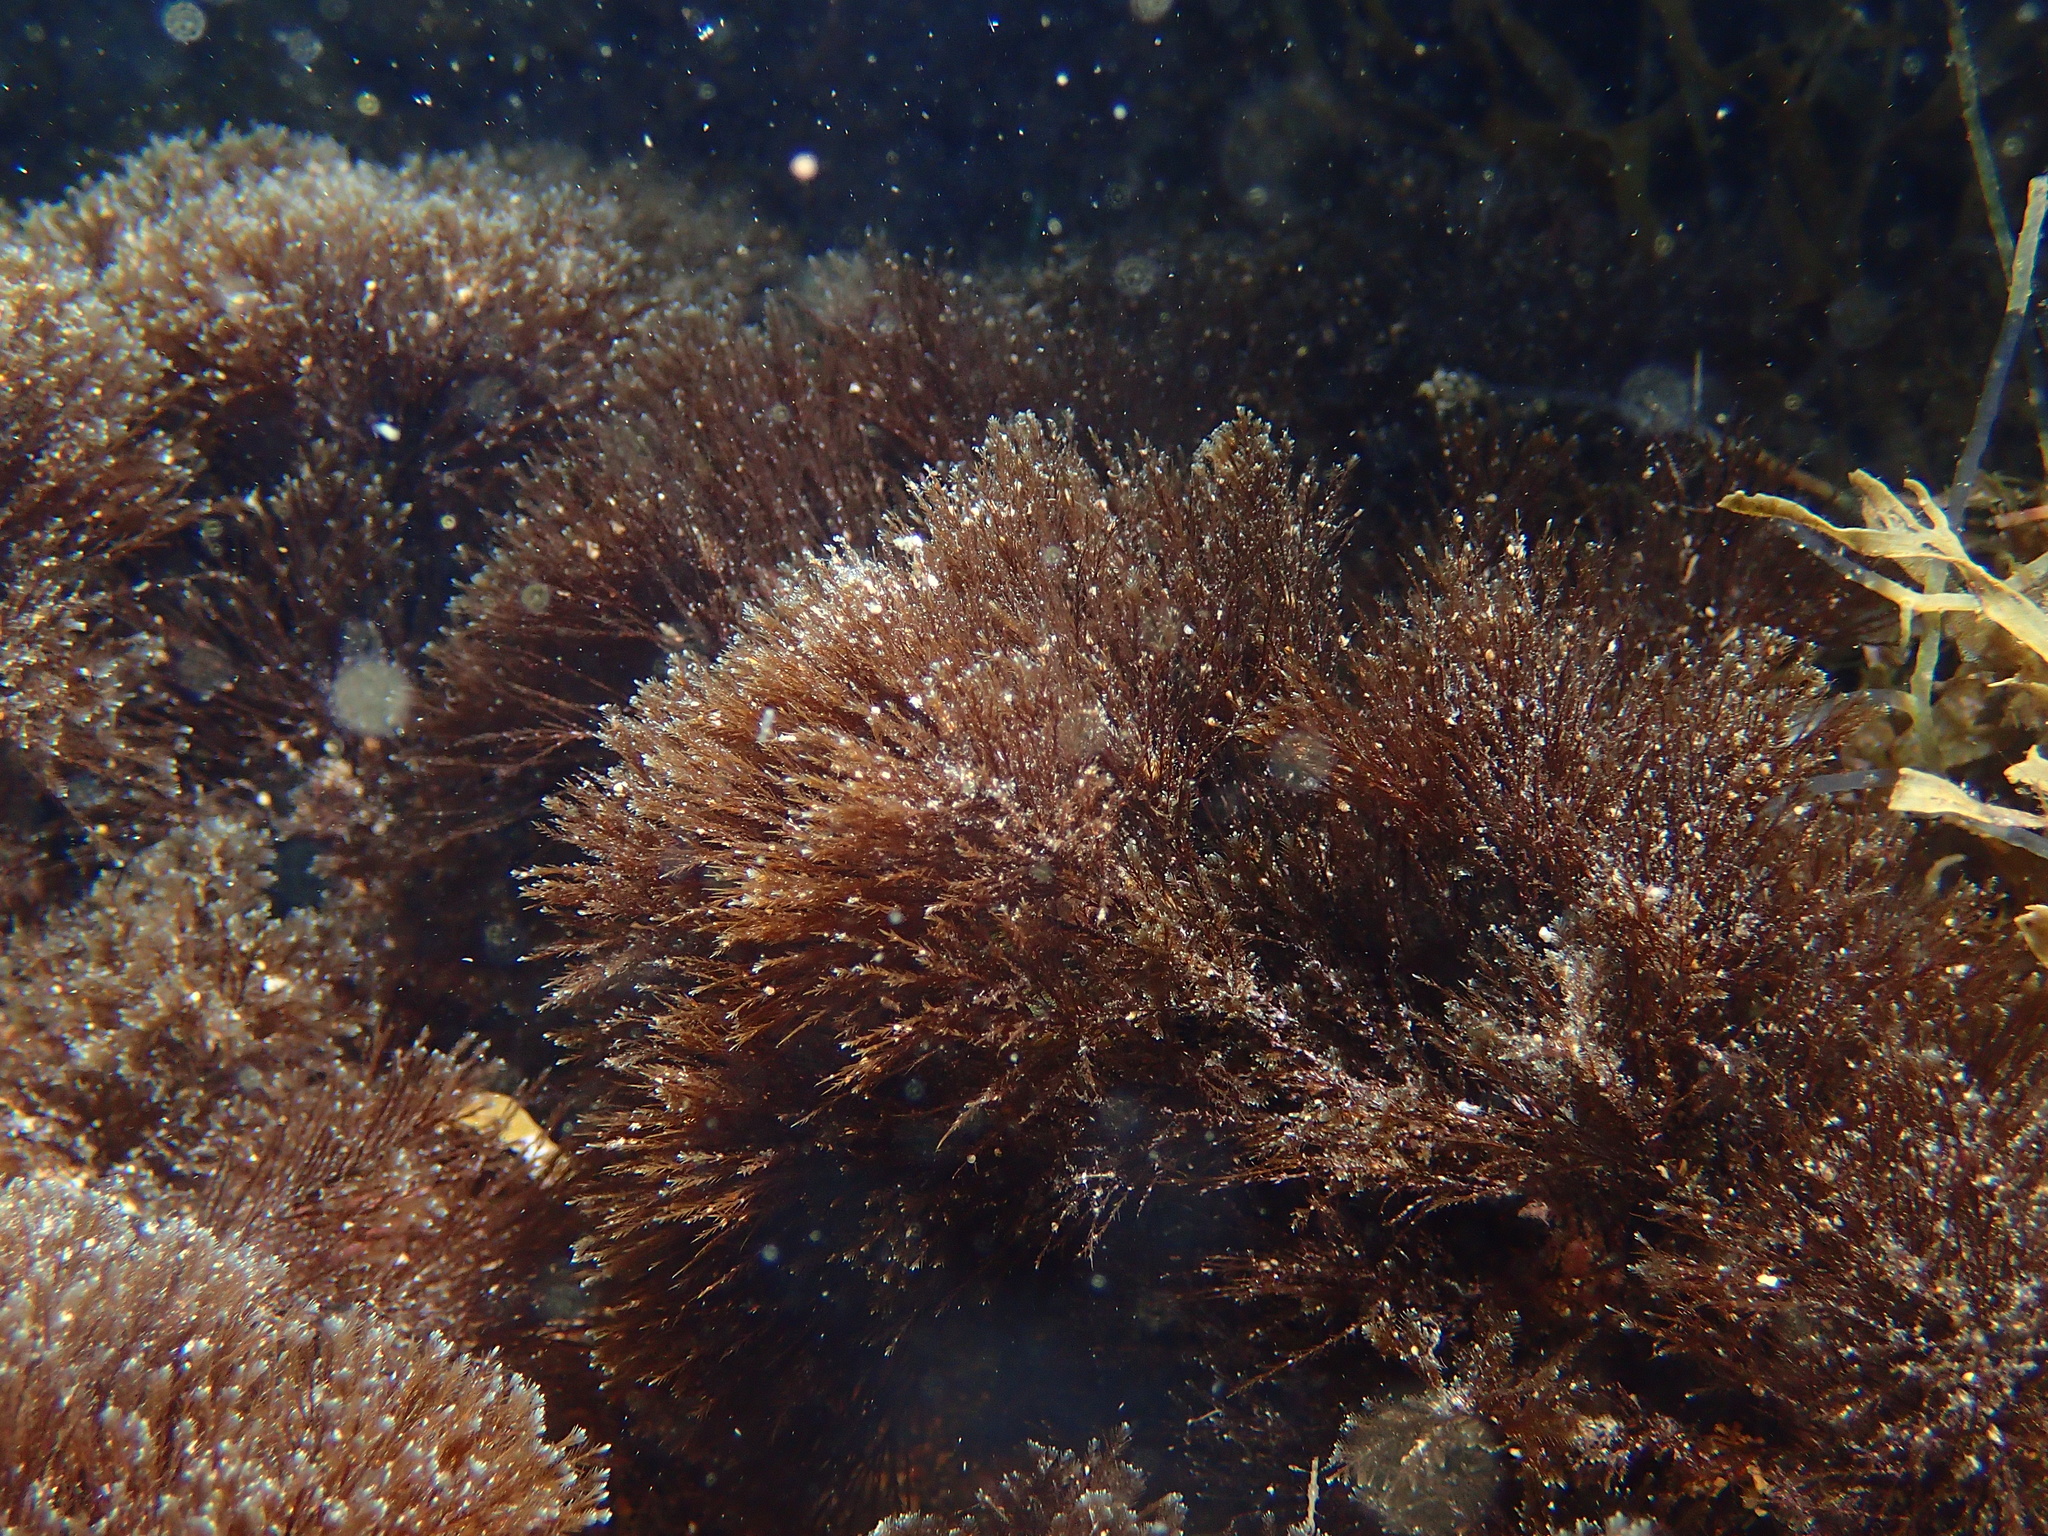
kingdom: Chromista
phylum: Ochrophyta
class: Phaeophyceae
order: Sphacelariales
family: Stypocaulaceae
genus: Halopteris
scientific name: Halopteris scoparia
